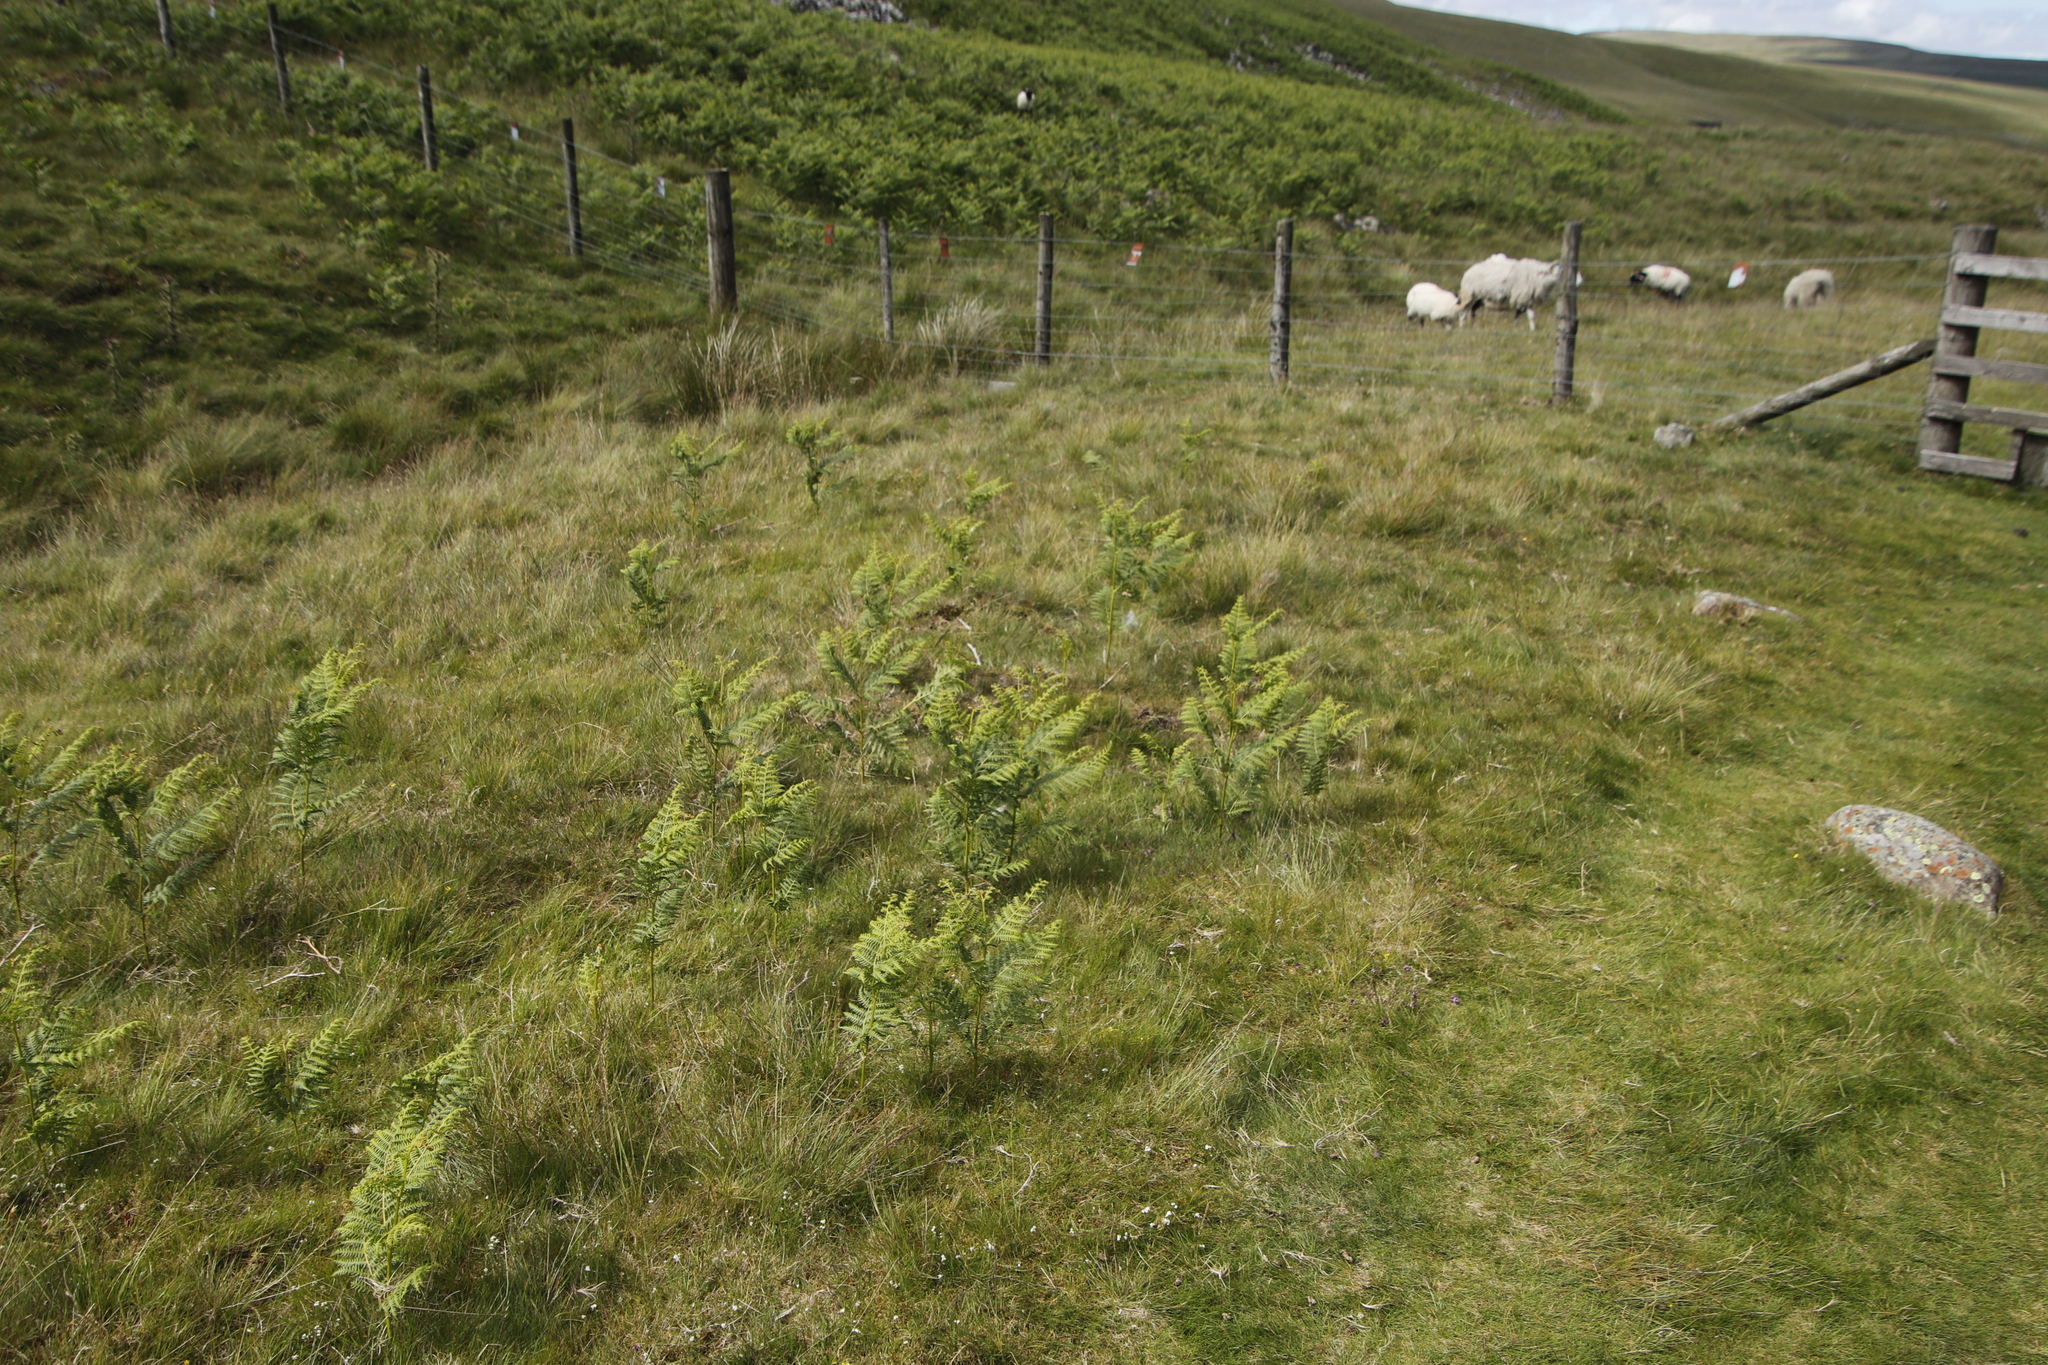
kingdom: Plantae
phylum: Tracheophyta
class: Polypodiopsida
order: Polypodiales
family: Dennstaedtiaceae
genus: Pteridium
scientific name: Pteridium aquilinum
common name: Bracken
